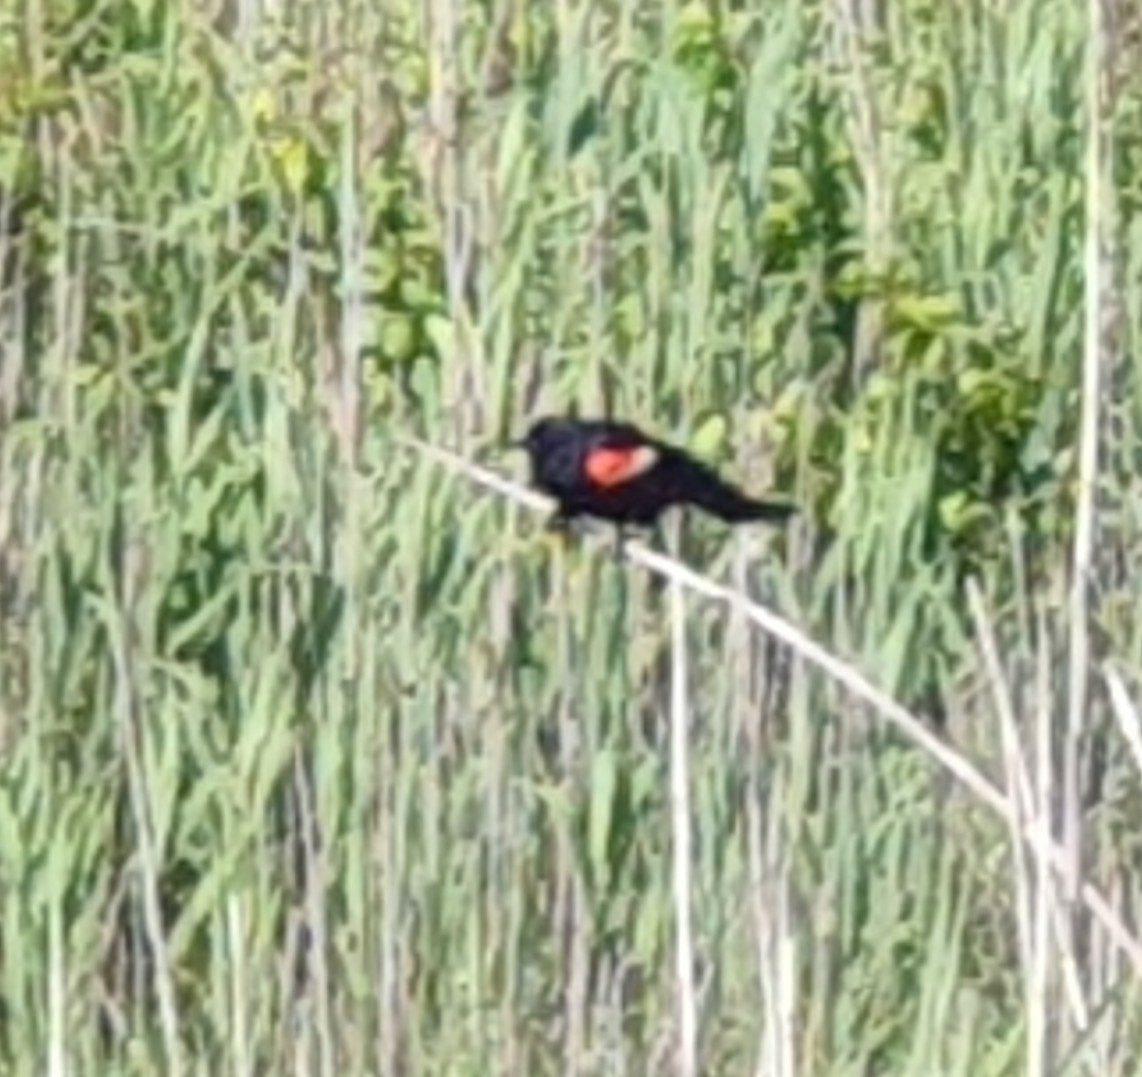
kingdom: Animalia
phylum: Chordata
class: Aves
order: Passeriformes
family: Icteridae
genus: Agelaius
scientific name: Agelaius phoeniceus
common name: Red-winged blackbird
